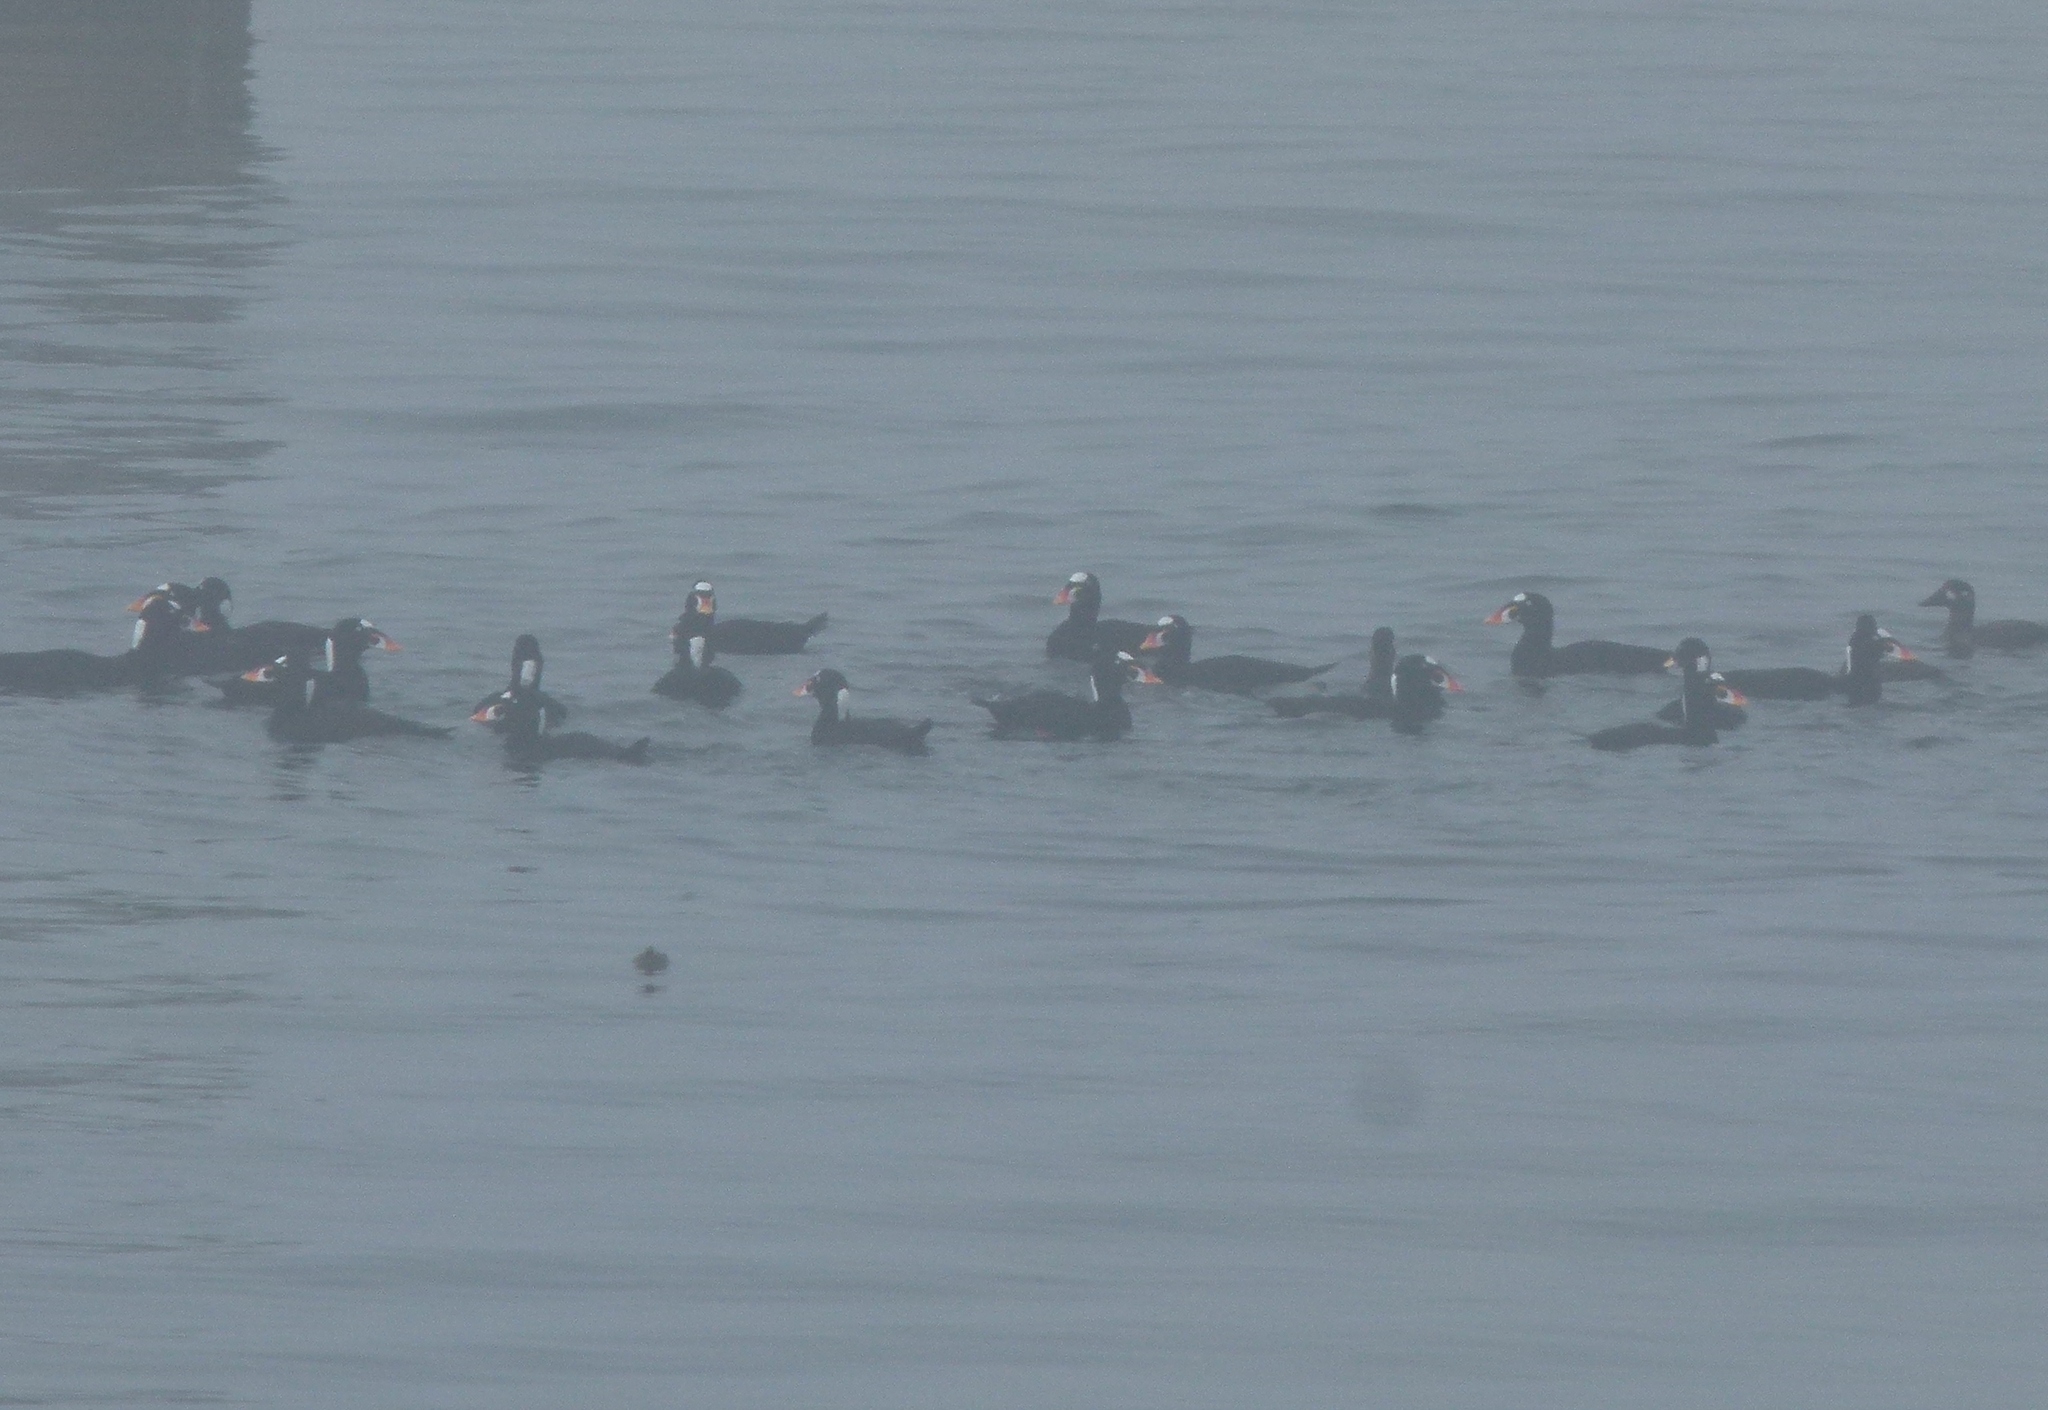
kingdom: Animalia
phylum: Chordata
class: Aves
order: Anseriformes
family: Anatidae
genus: Melanitta
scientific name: Melanitta perspicillata
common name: Surf scoter
